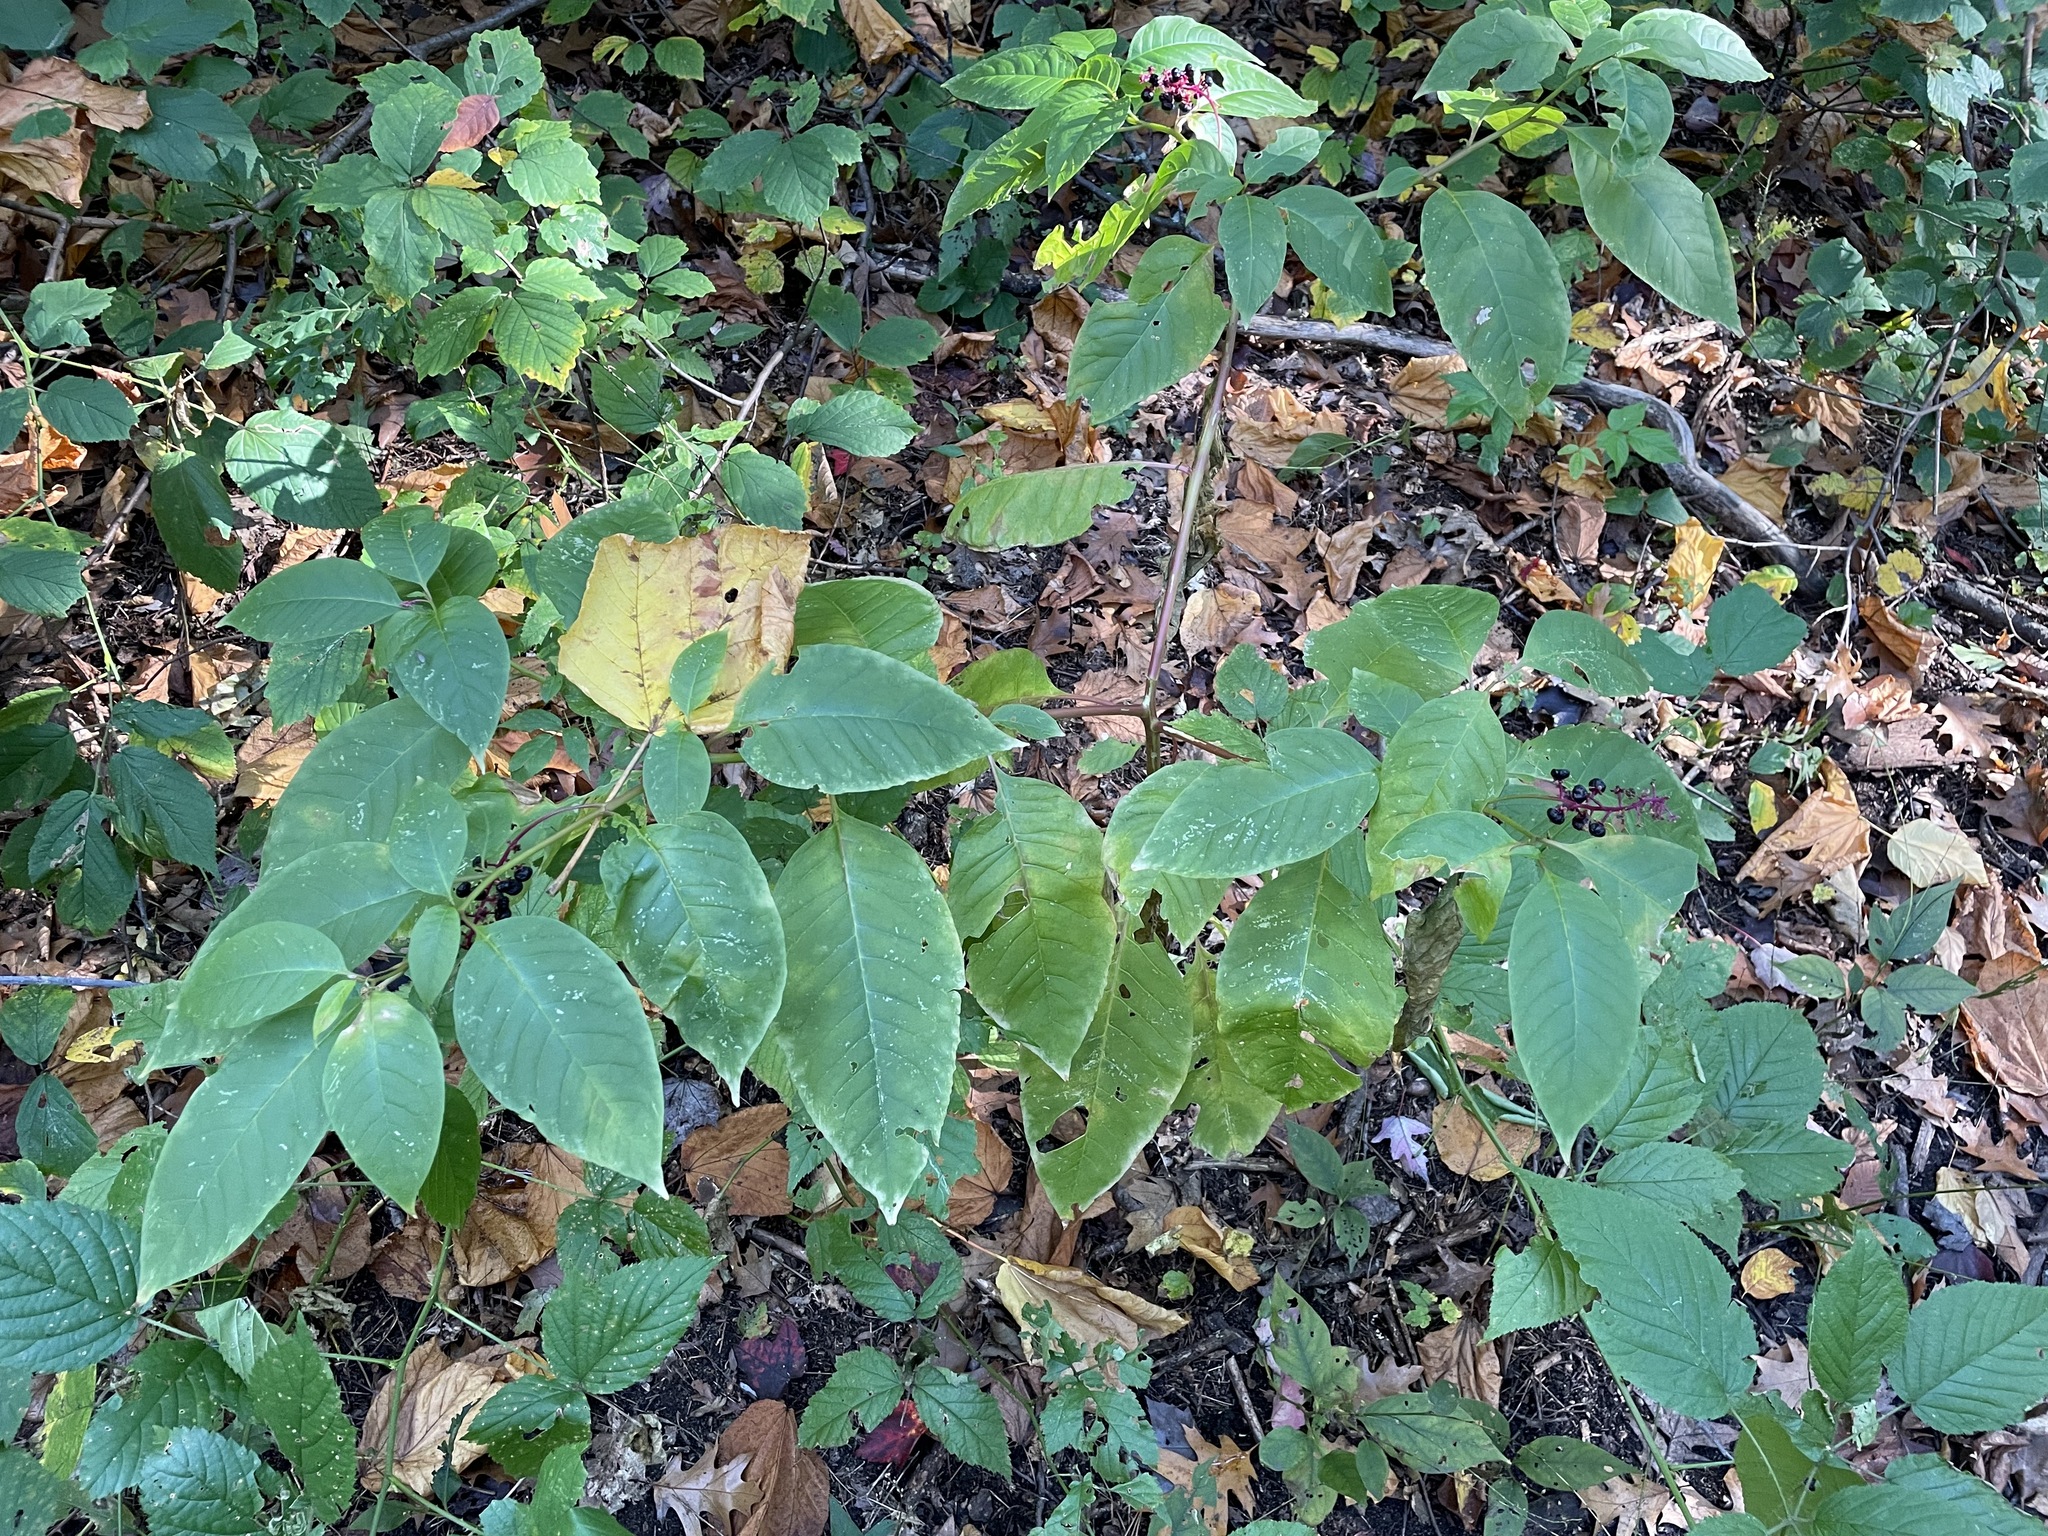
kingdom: Plantae
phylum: Tracheophyta
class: Magnoliopsida
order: Caryophyllales
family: Phytolaccaceae
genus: Phytolacca
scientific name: Phytolacca americana
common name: American pokeweed
